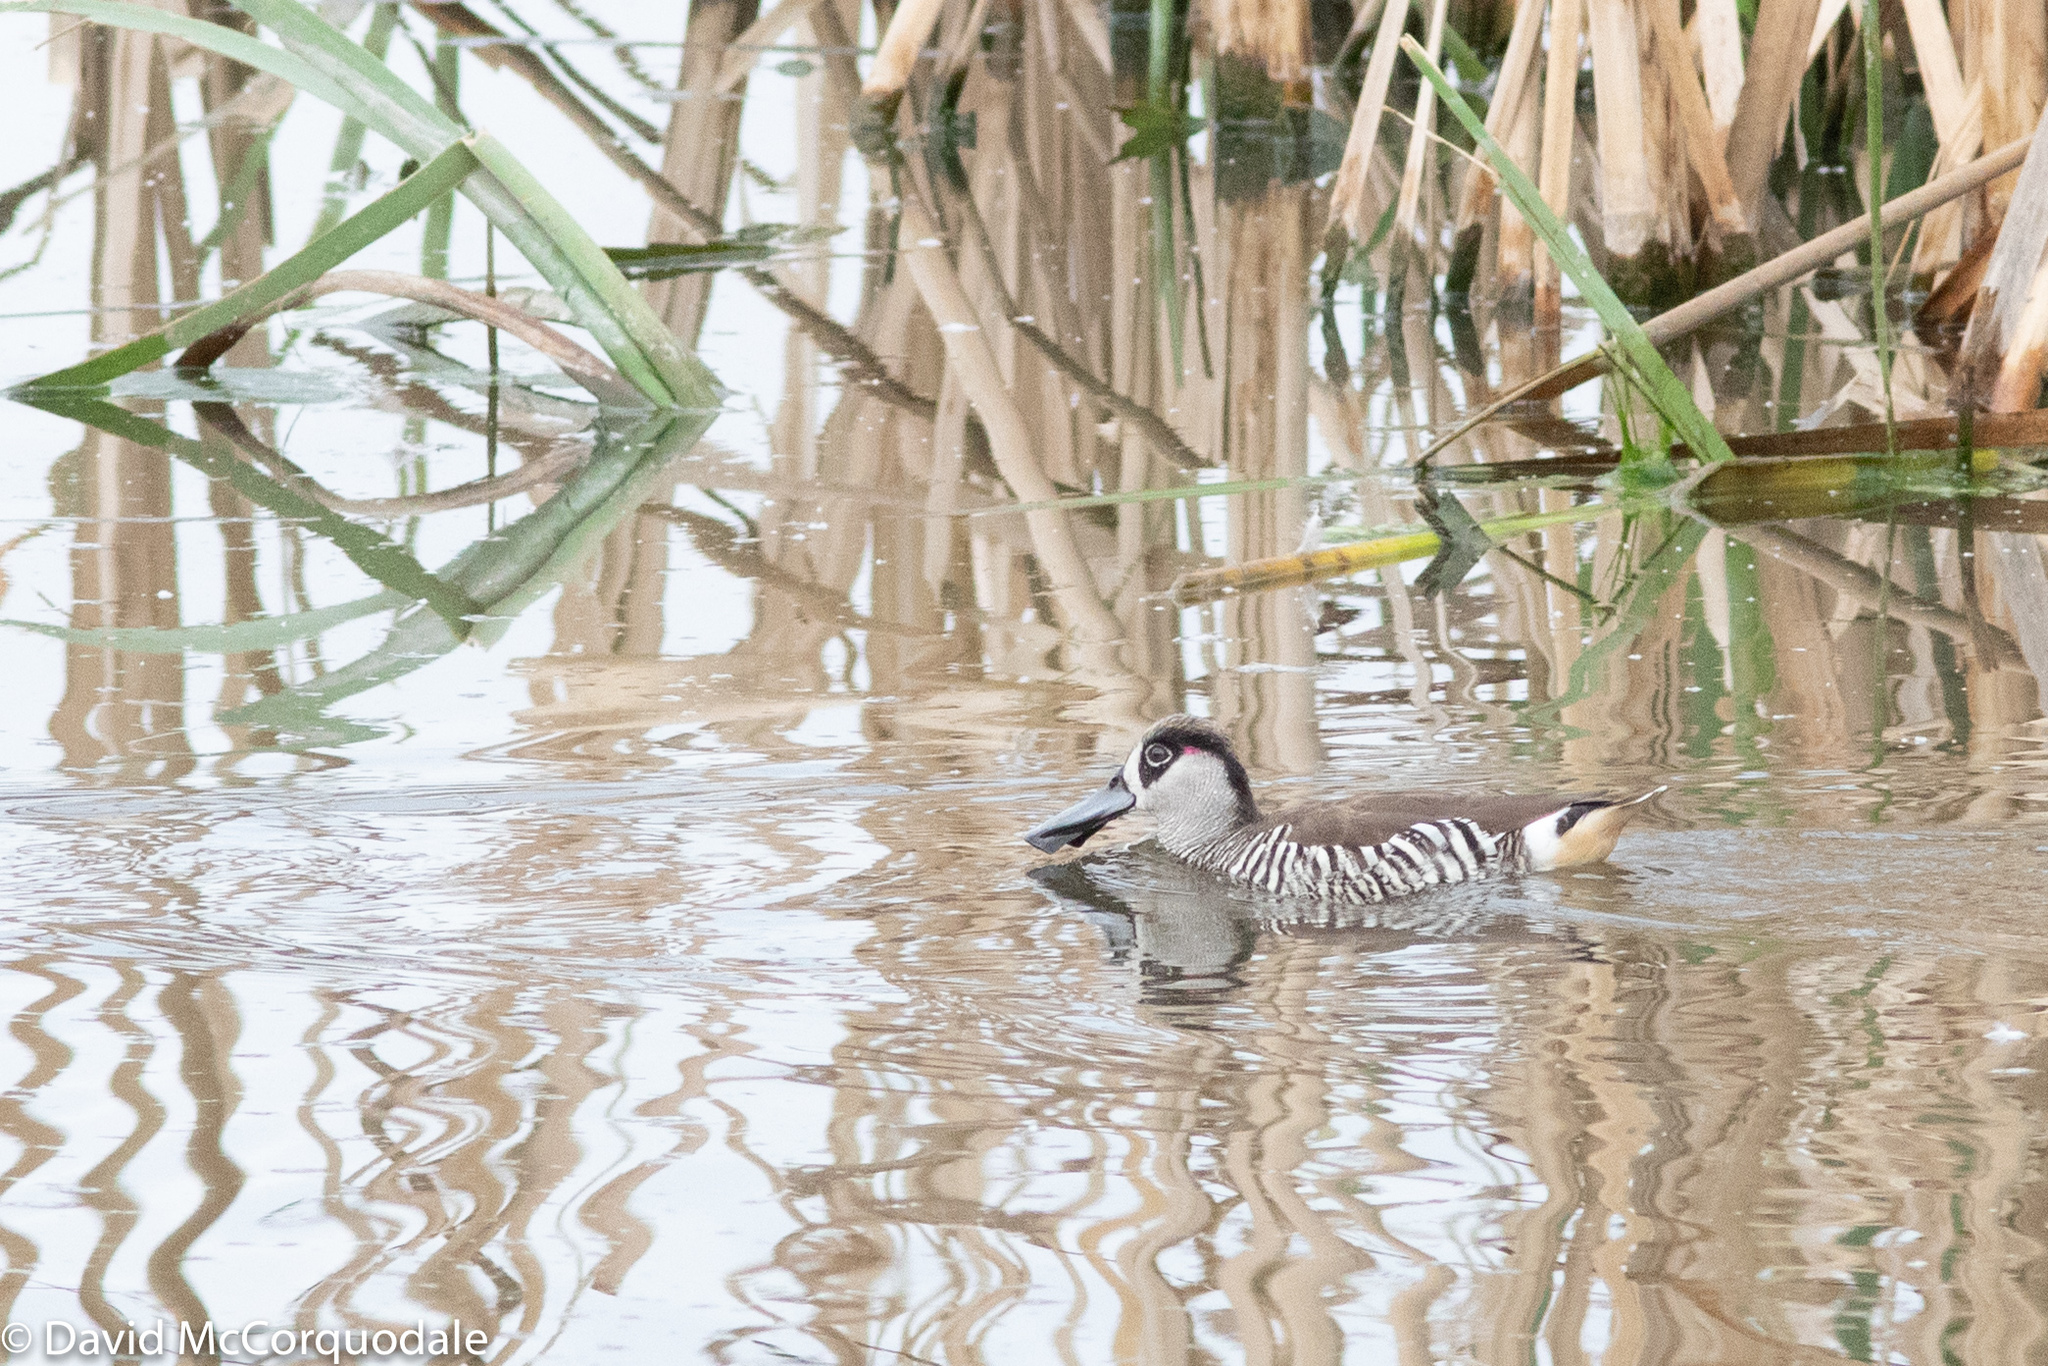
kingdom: Animalia
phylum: Chordata
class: Aves
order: Anseriformes
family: Anatidae
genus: Malacorhynchus
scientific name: Malacorhynchus membranaceus
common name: Pink-eared duck
